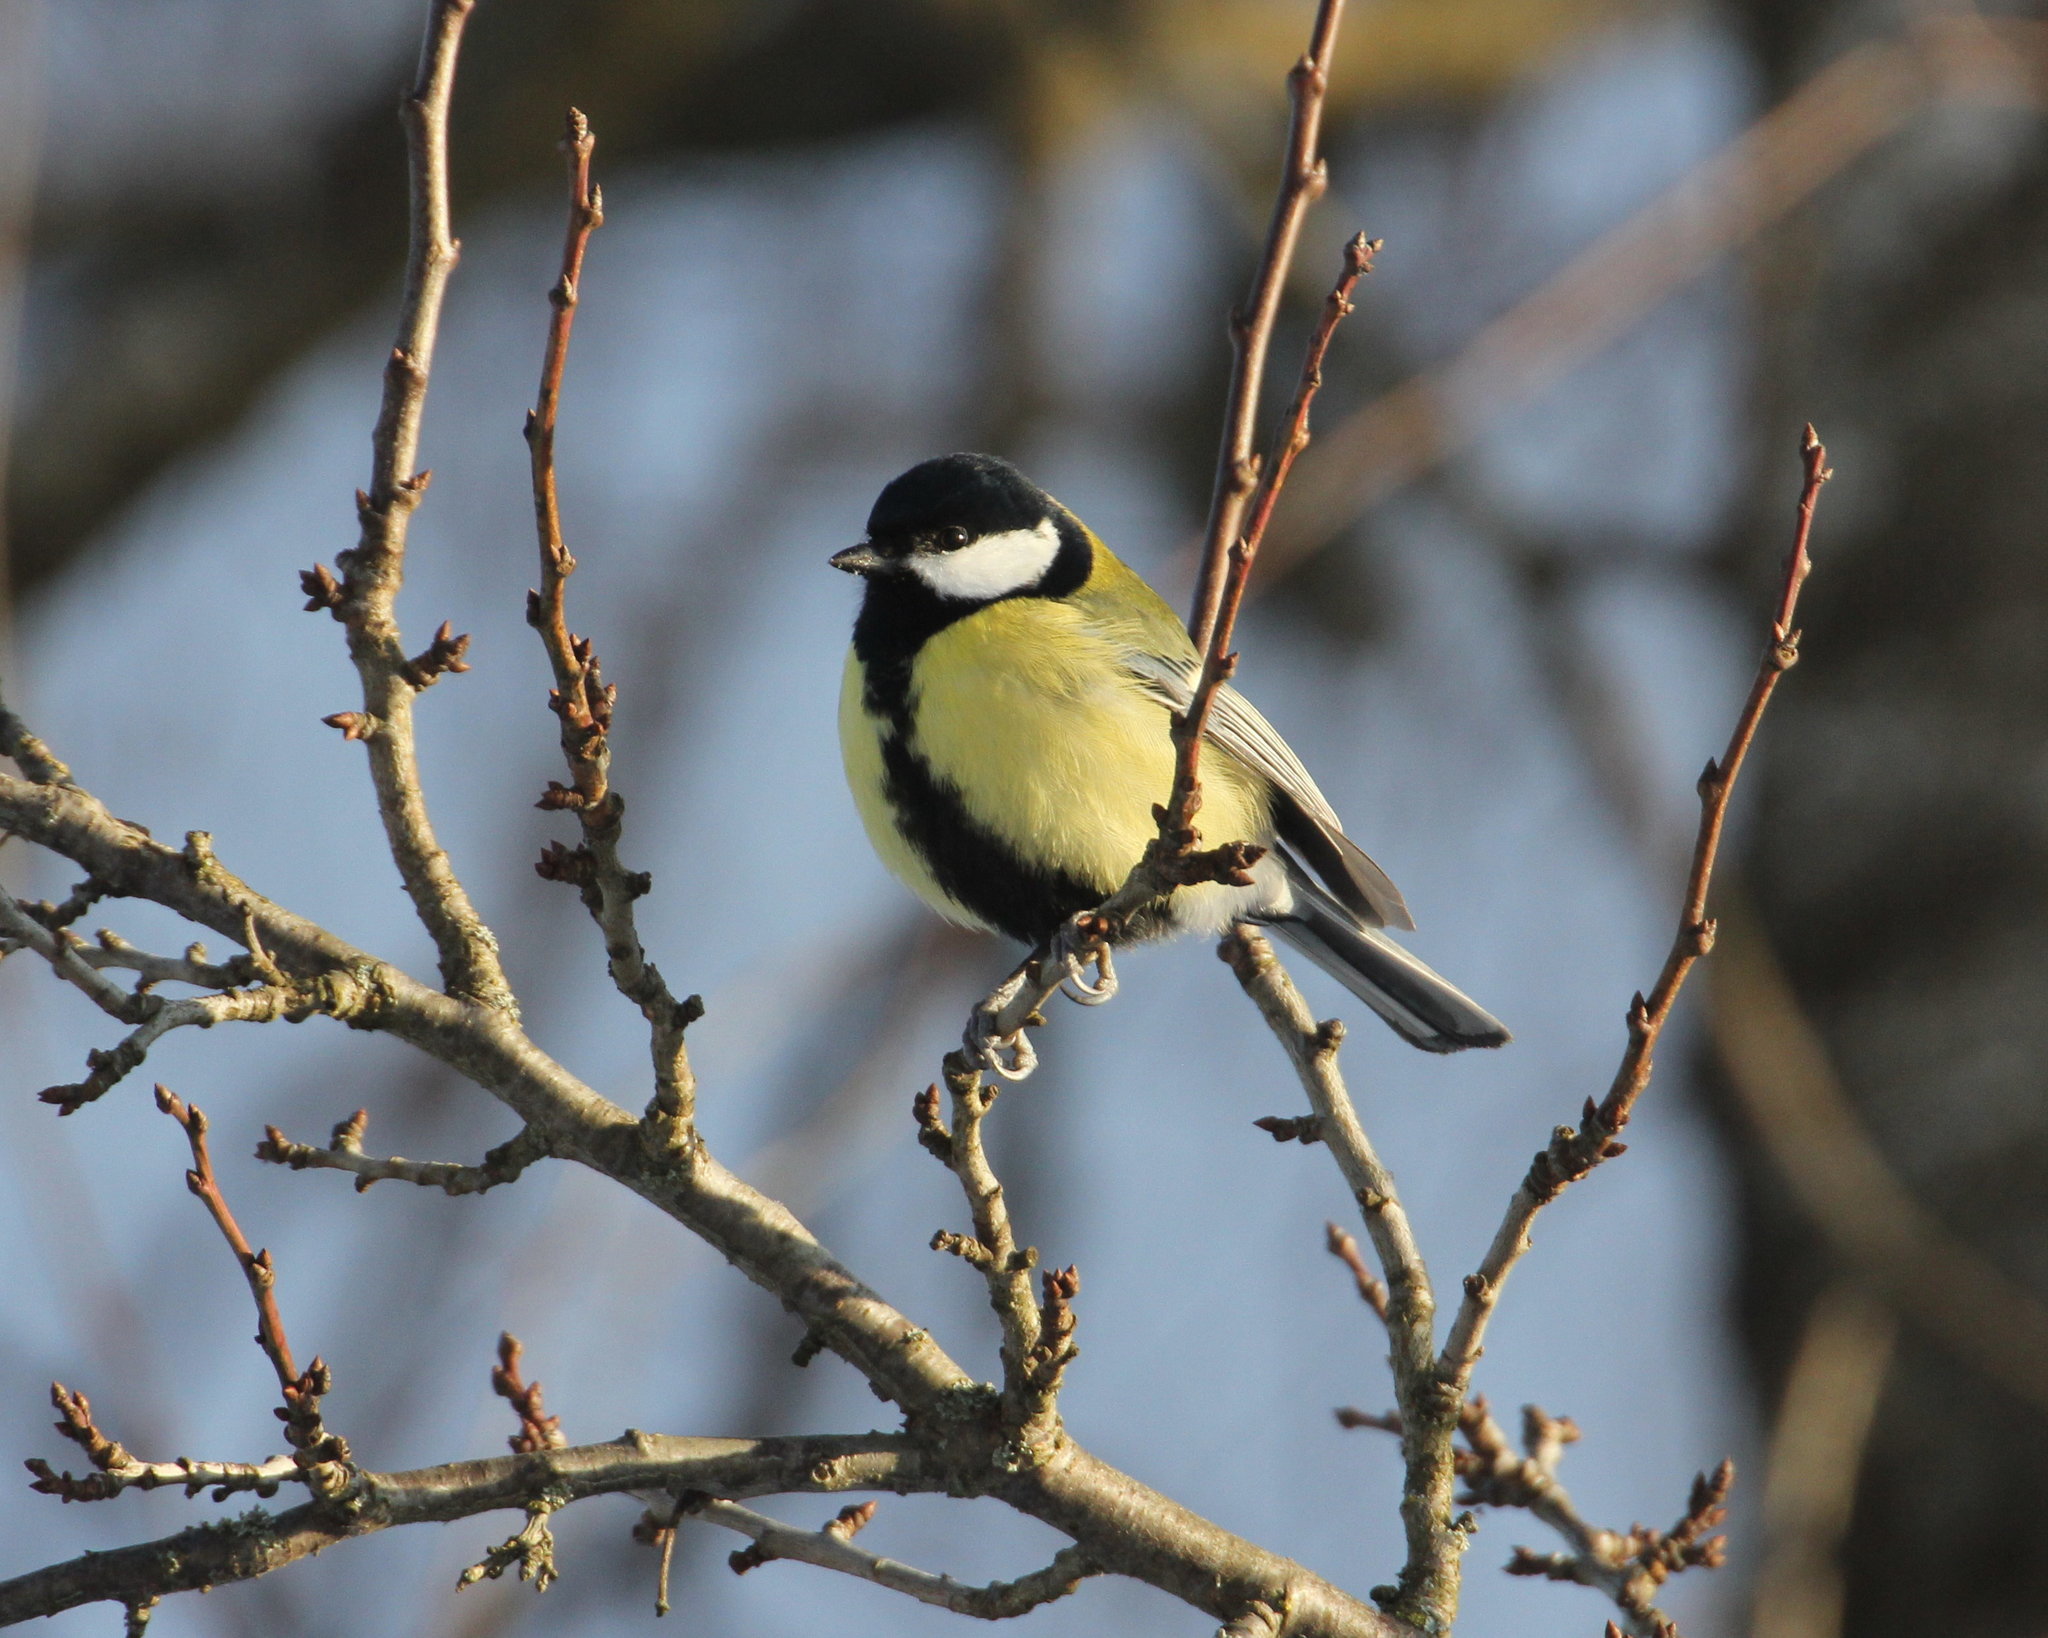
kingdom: Animalia
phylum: Chordata
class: Aves
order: Passeriformes
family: Paridae
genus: Parus
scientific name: Parus major
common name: Great tit
